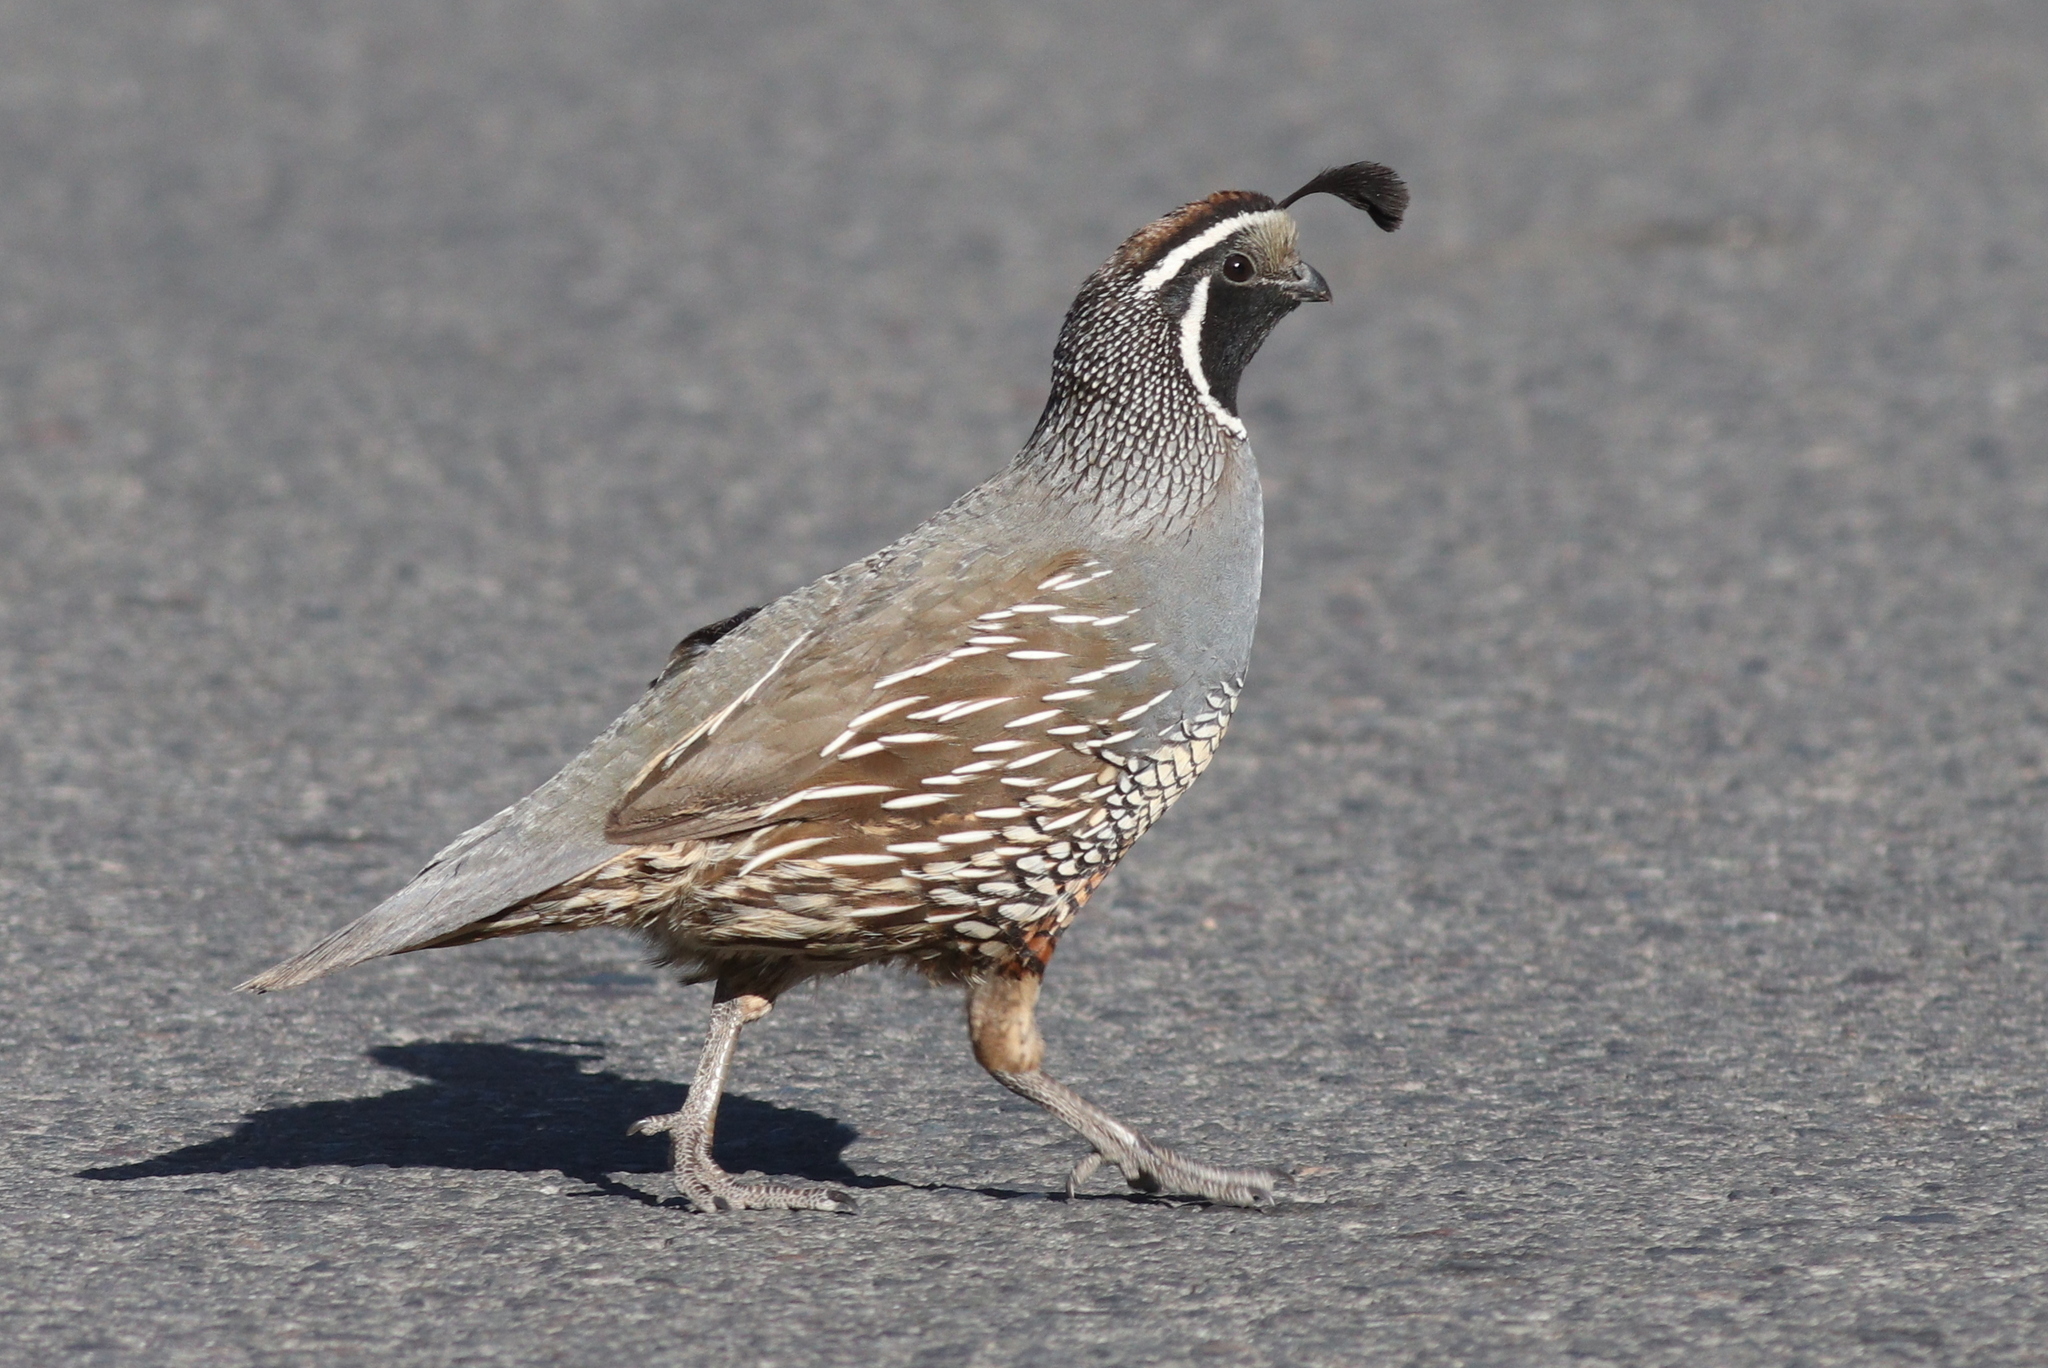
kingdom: Animalia
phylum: Chordata
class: Aves
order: Galliformes
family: Odontophoridae
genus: Callipepla
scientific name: Callipepla californica
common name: California quail
